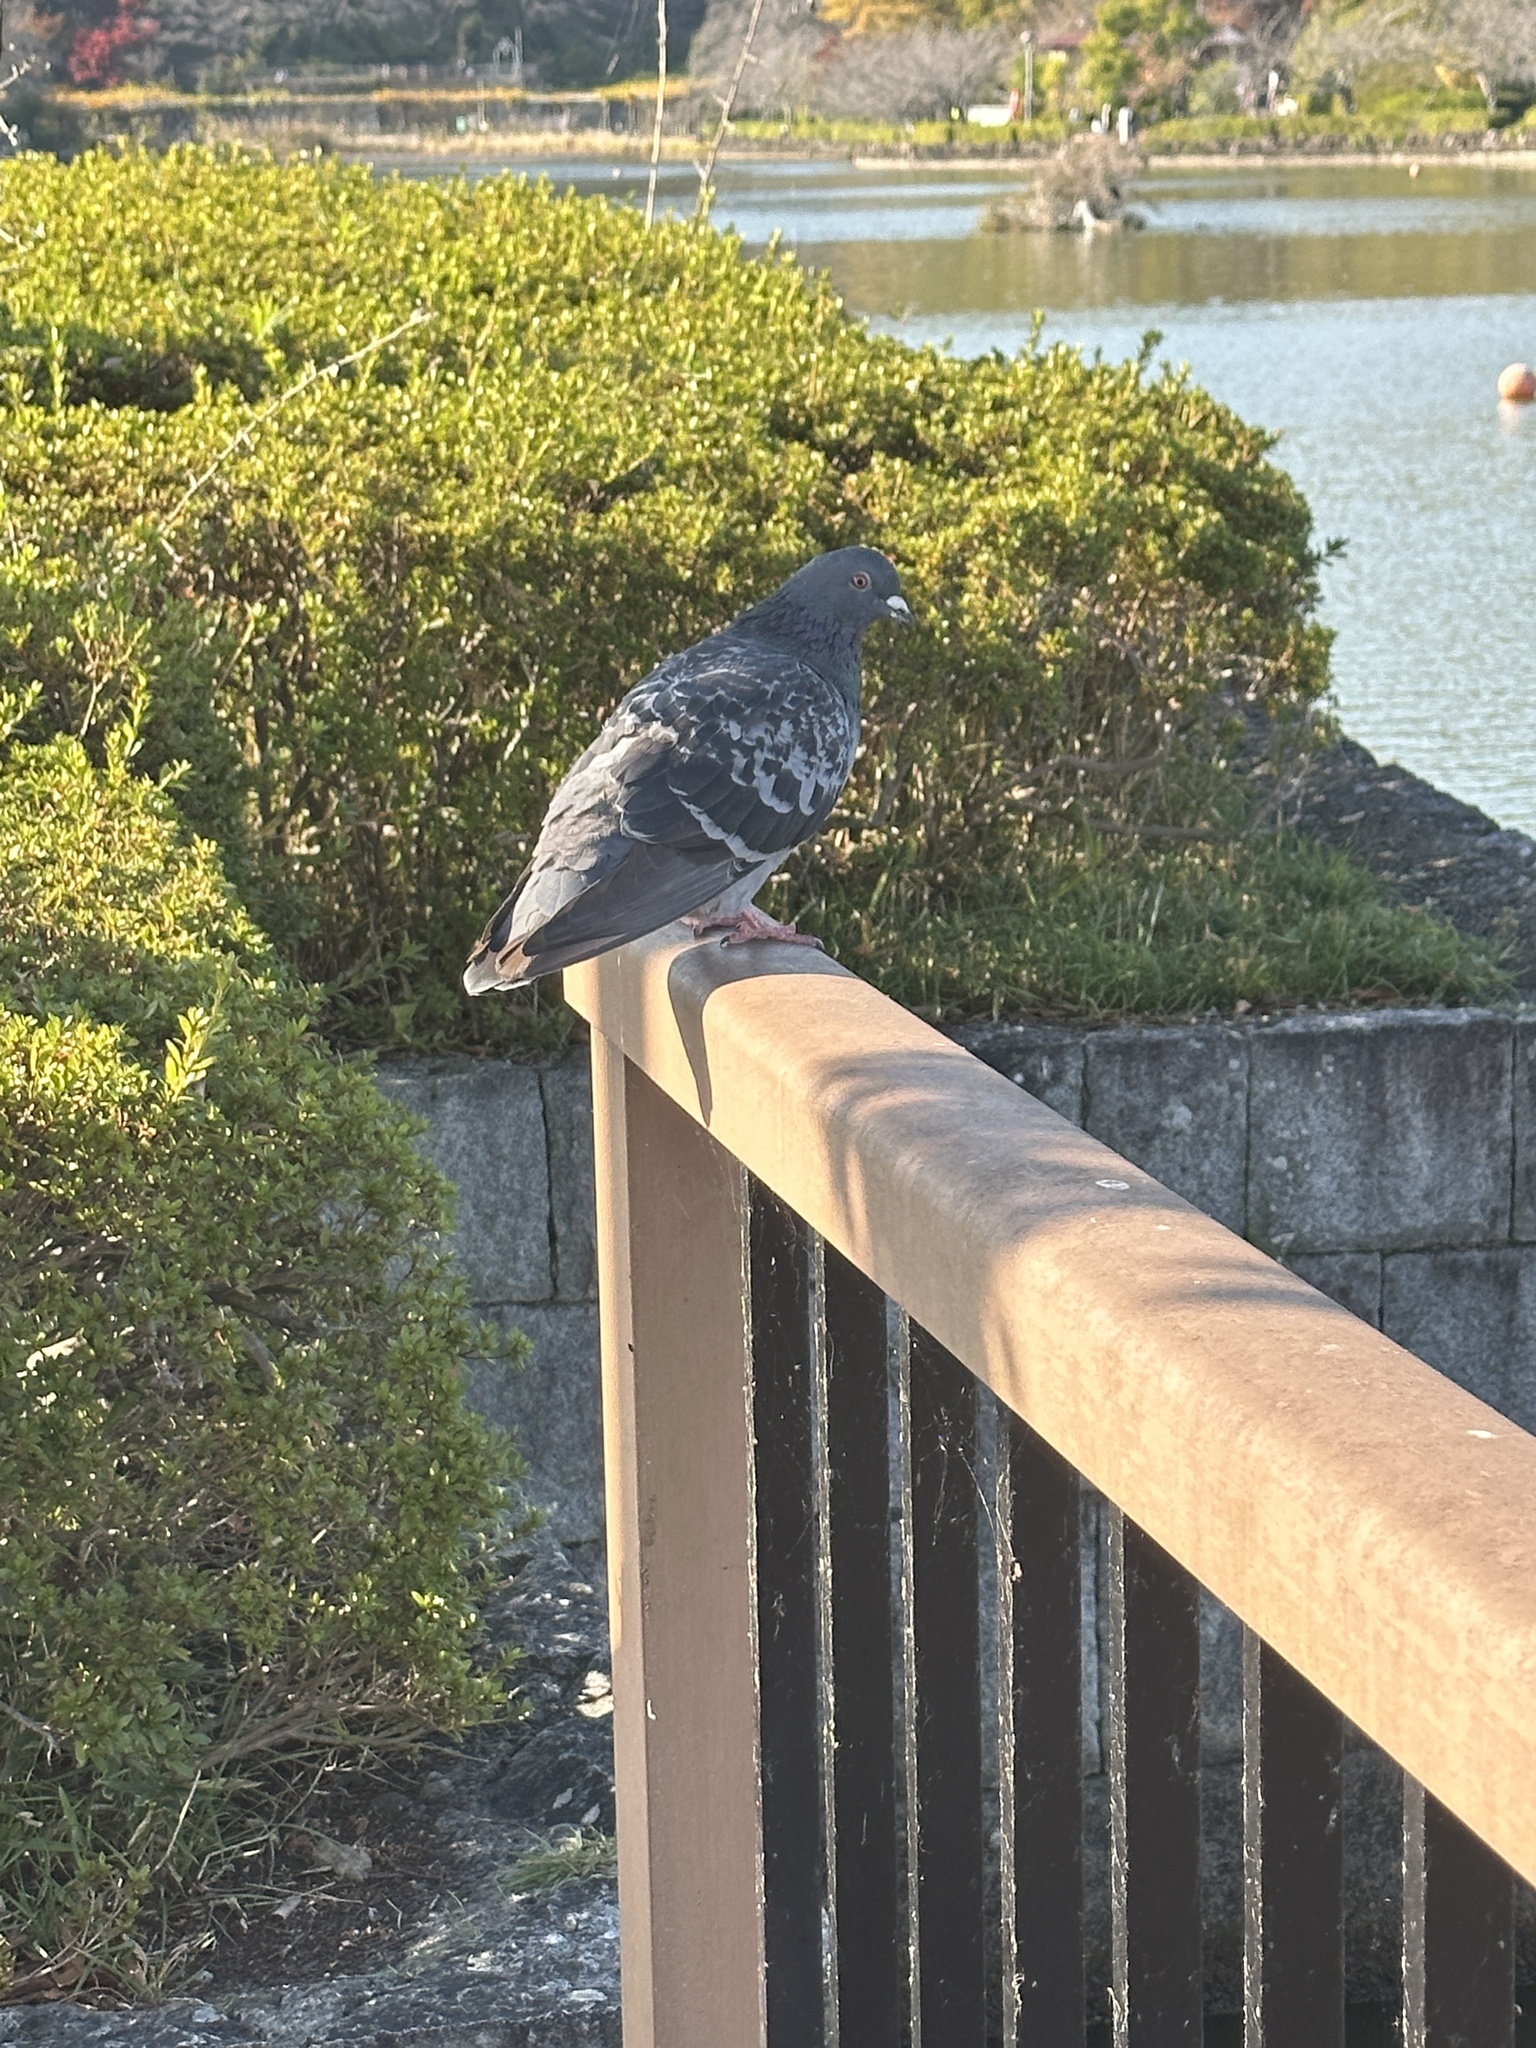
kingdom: Animalia
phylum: Chordata
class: Aves
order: Columbiformes
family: Columbidae
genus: Columba
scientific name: Columba livia
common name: Rock pigeon
